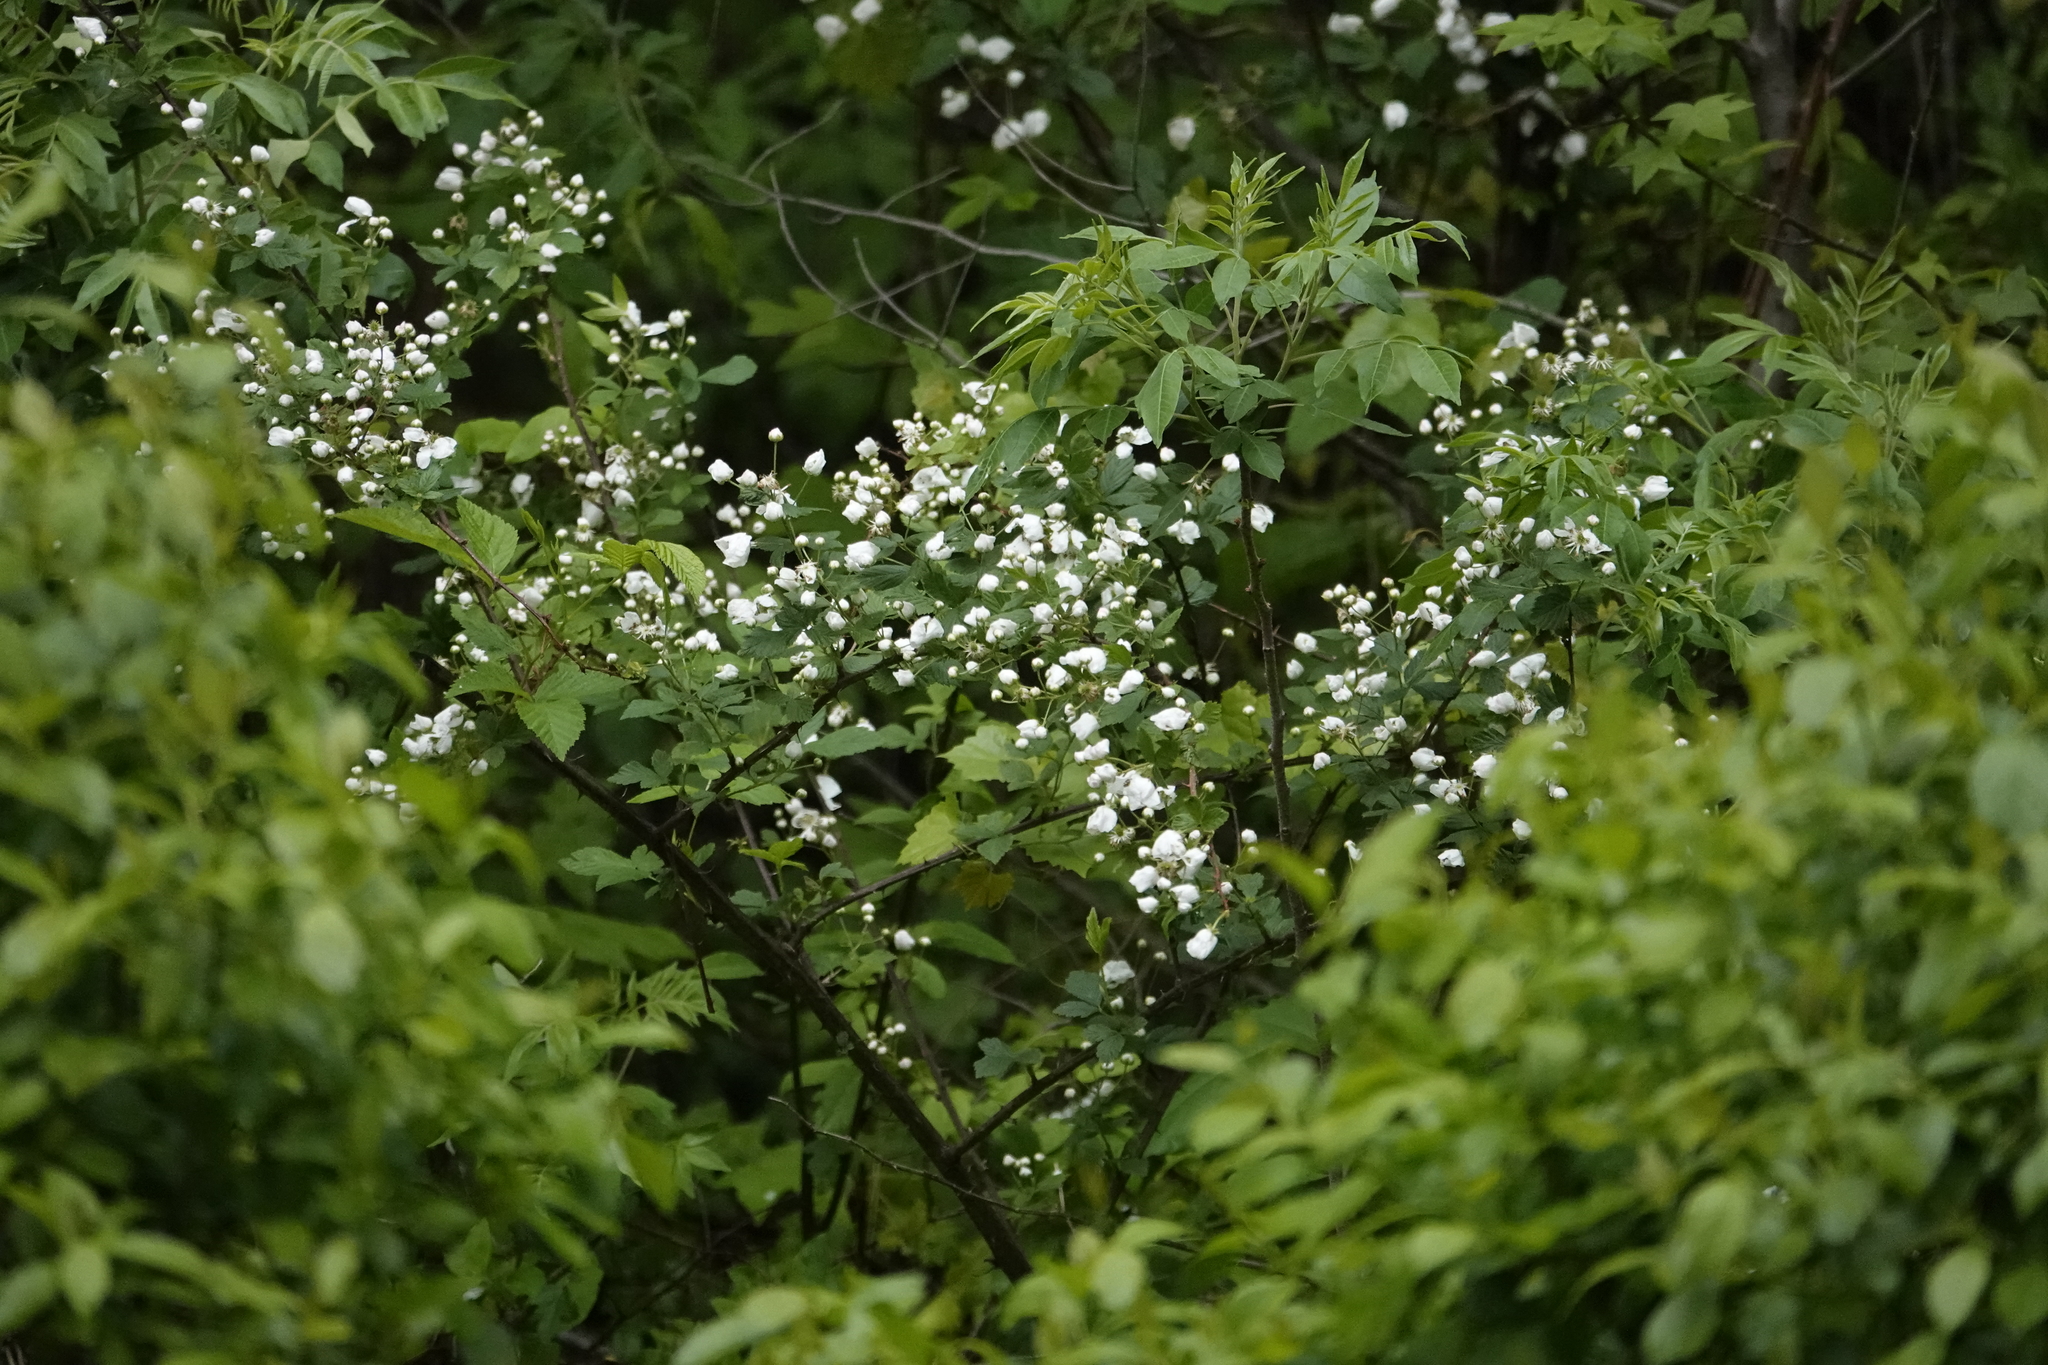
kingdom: Plantae
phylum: Tracheophyta
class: Magnoliopsida
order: Rosales
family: Rosaceae
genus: Rubus
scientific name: Rubus pensilvanicus
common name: Pennsylvania blackberry
